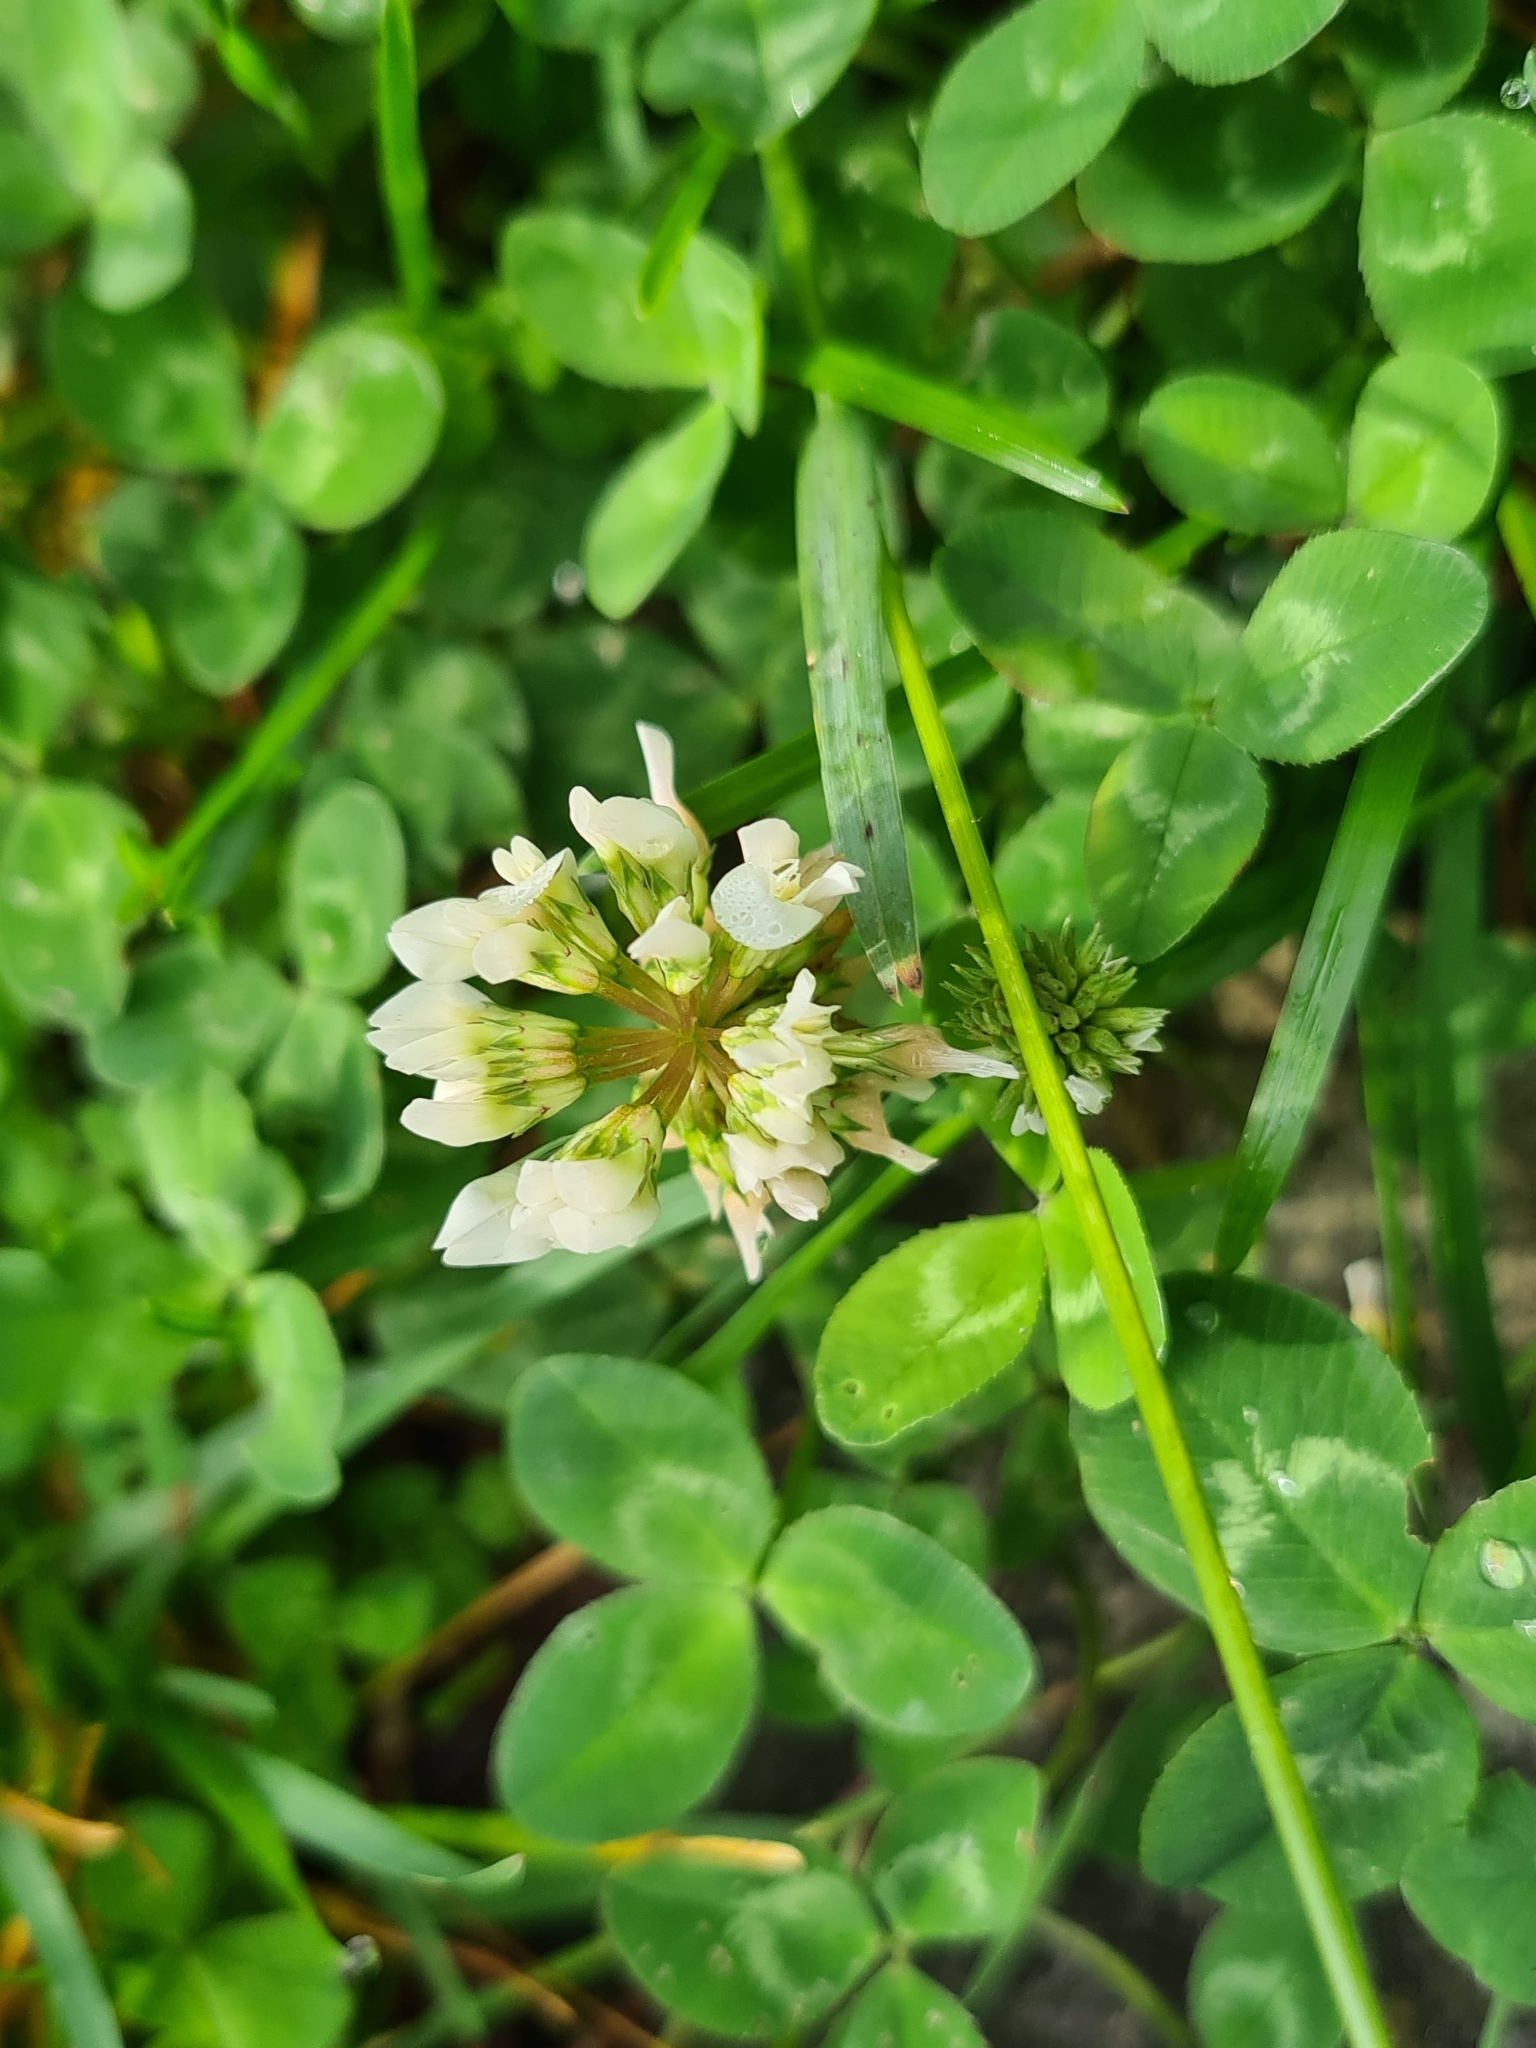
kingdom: Plantae
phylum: Tracheophyta
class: Magnoliopsida
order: Fabales
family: Fabaceae
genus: Trifolium
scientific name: Trifolium repens
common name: White clover
